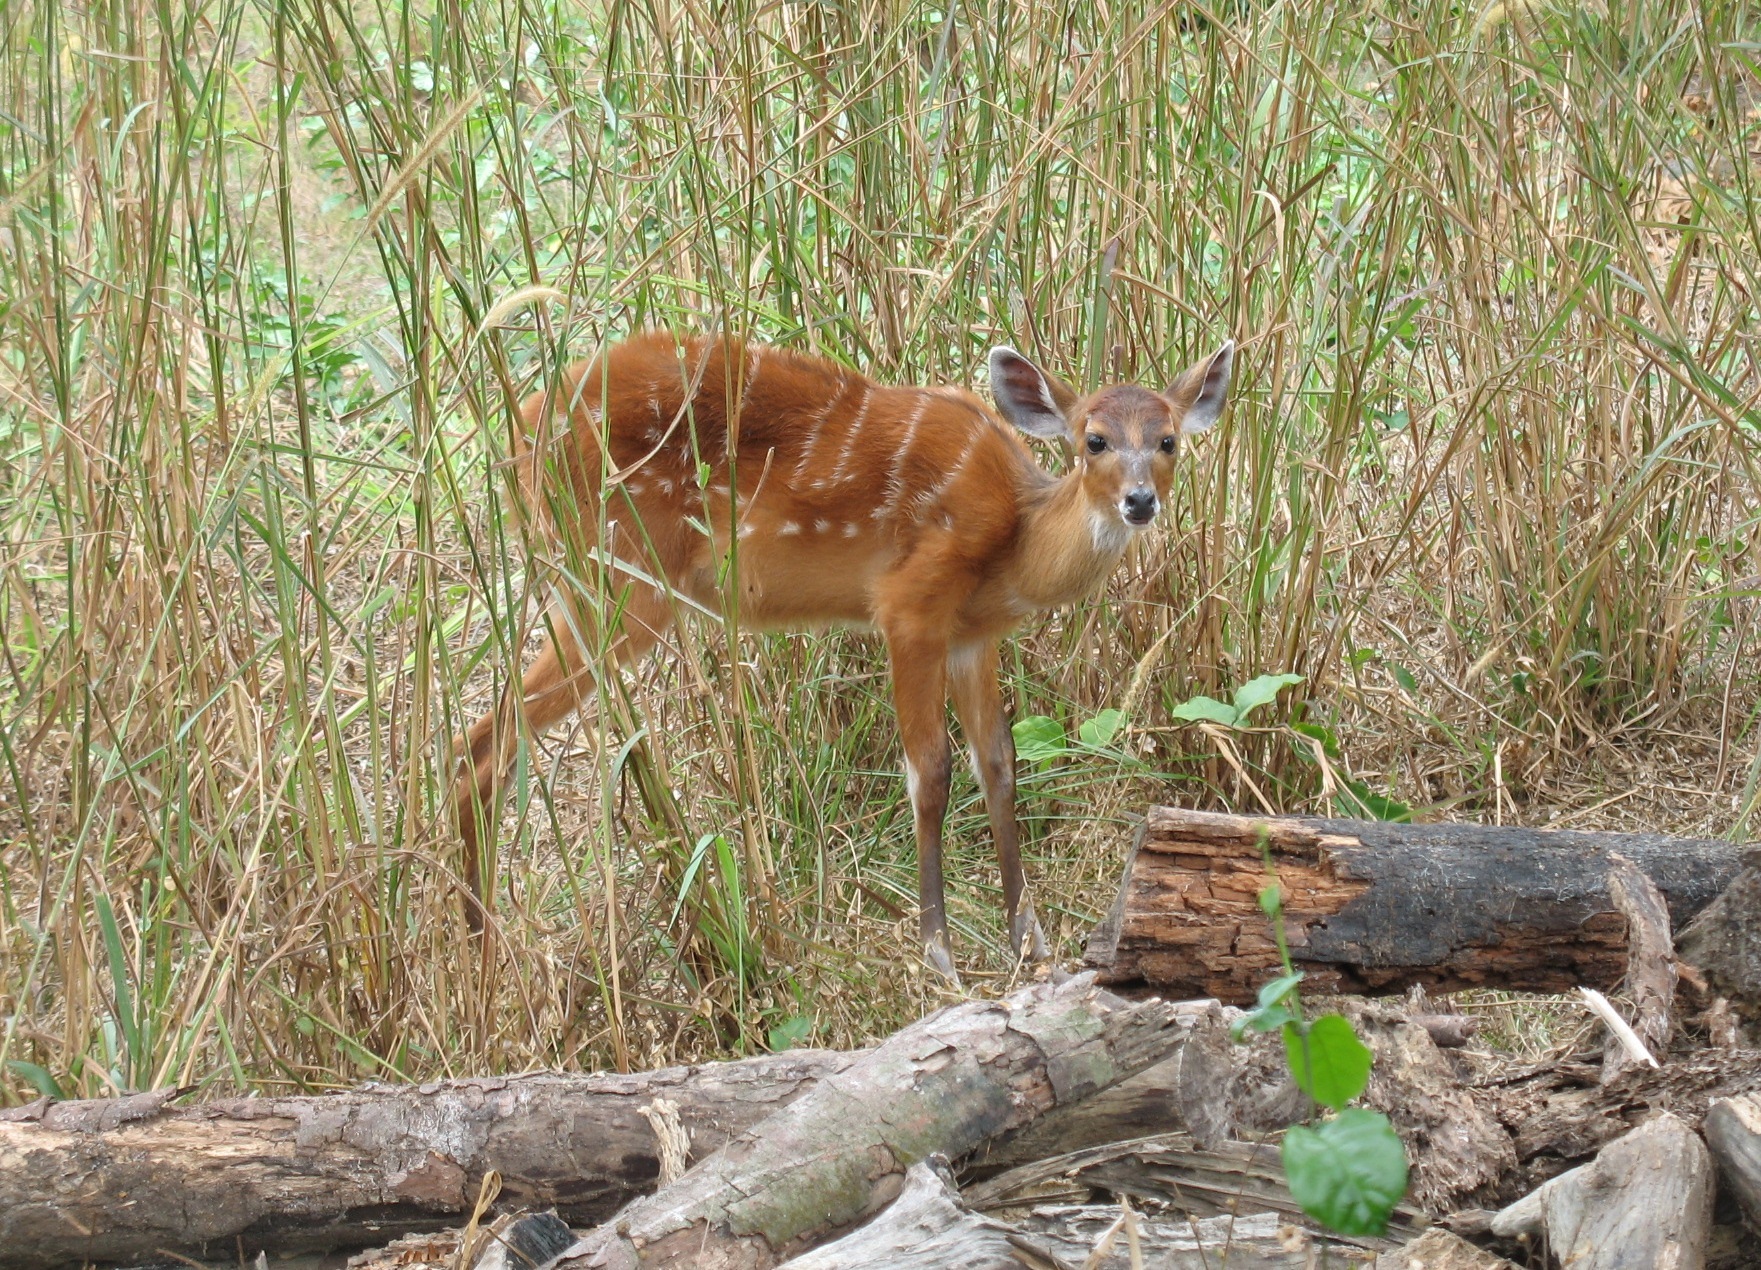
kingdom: Animalia
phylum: Chordata
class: Mammalia
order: Artiodactyla
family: Bovidae
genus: Tragelaphus
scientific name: Tragelaphus spekii
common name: Sitatunga
